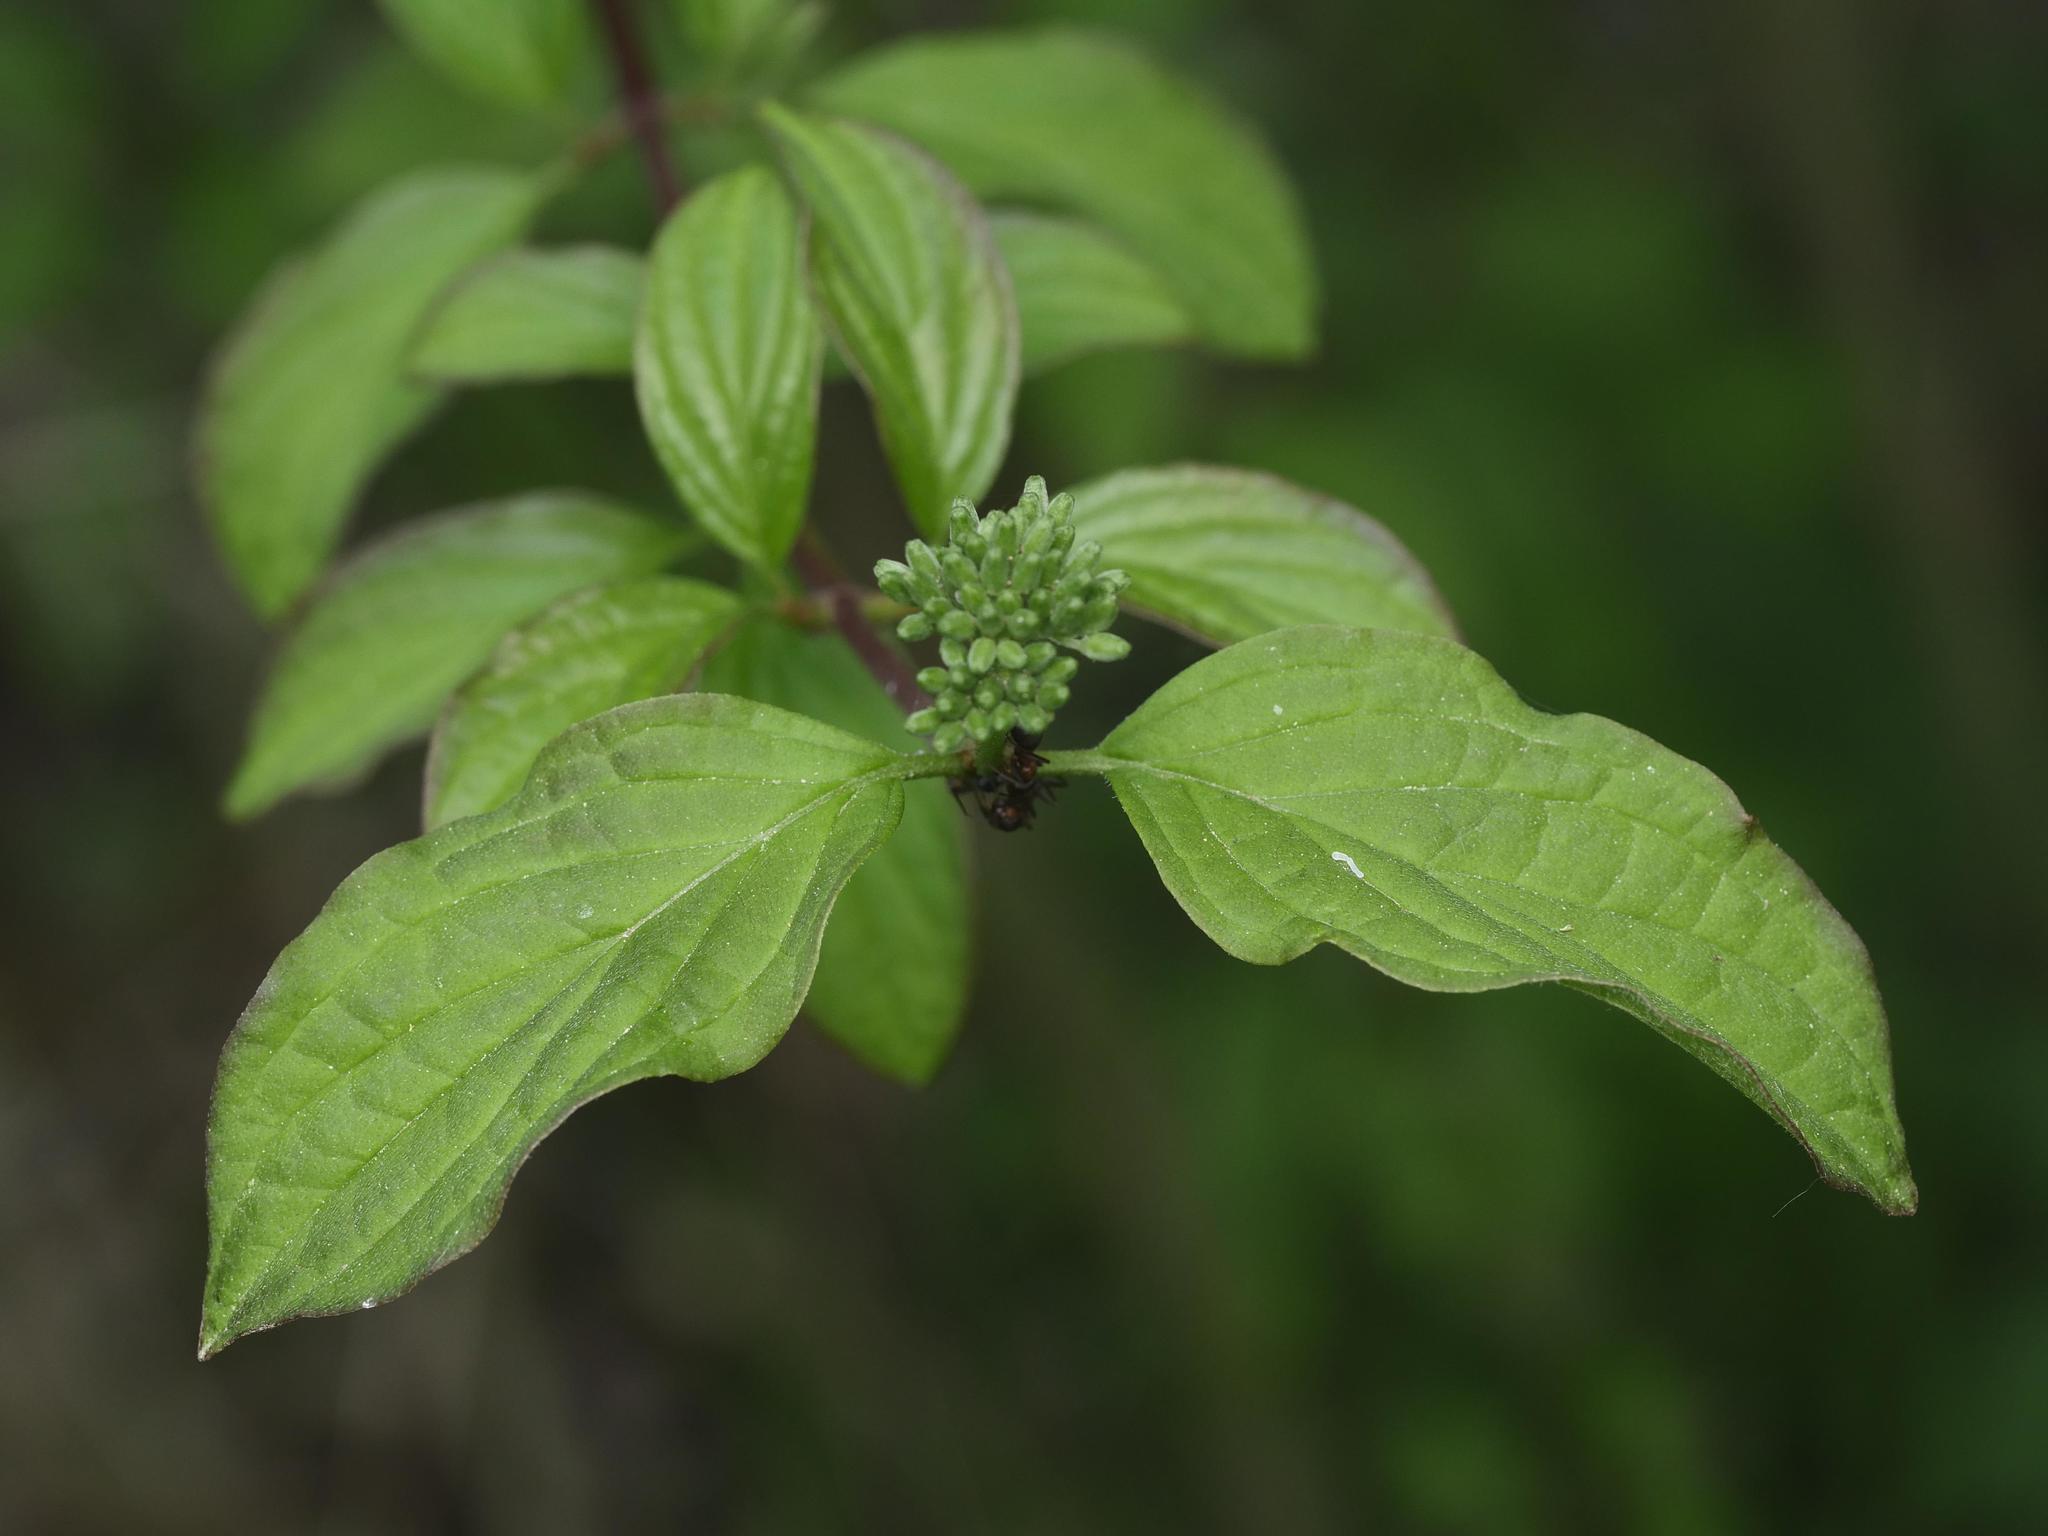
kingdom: Plantae
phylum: Tracheophyta
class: Magnoliopsida
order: Cornales
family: Cornaceae
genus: Cornus
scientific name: Cornus sanguinea
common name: Dogwood
